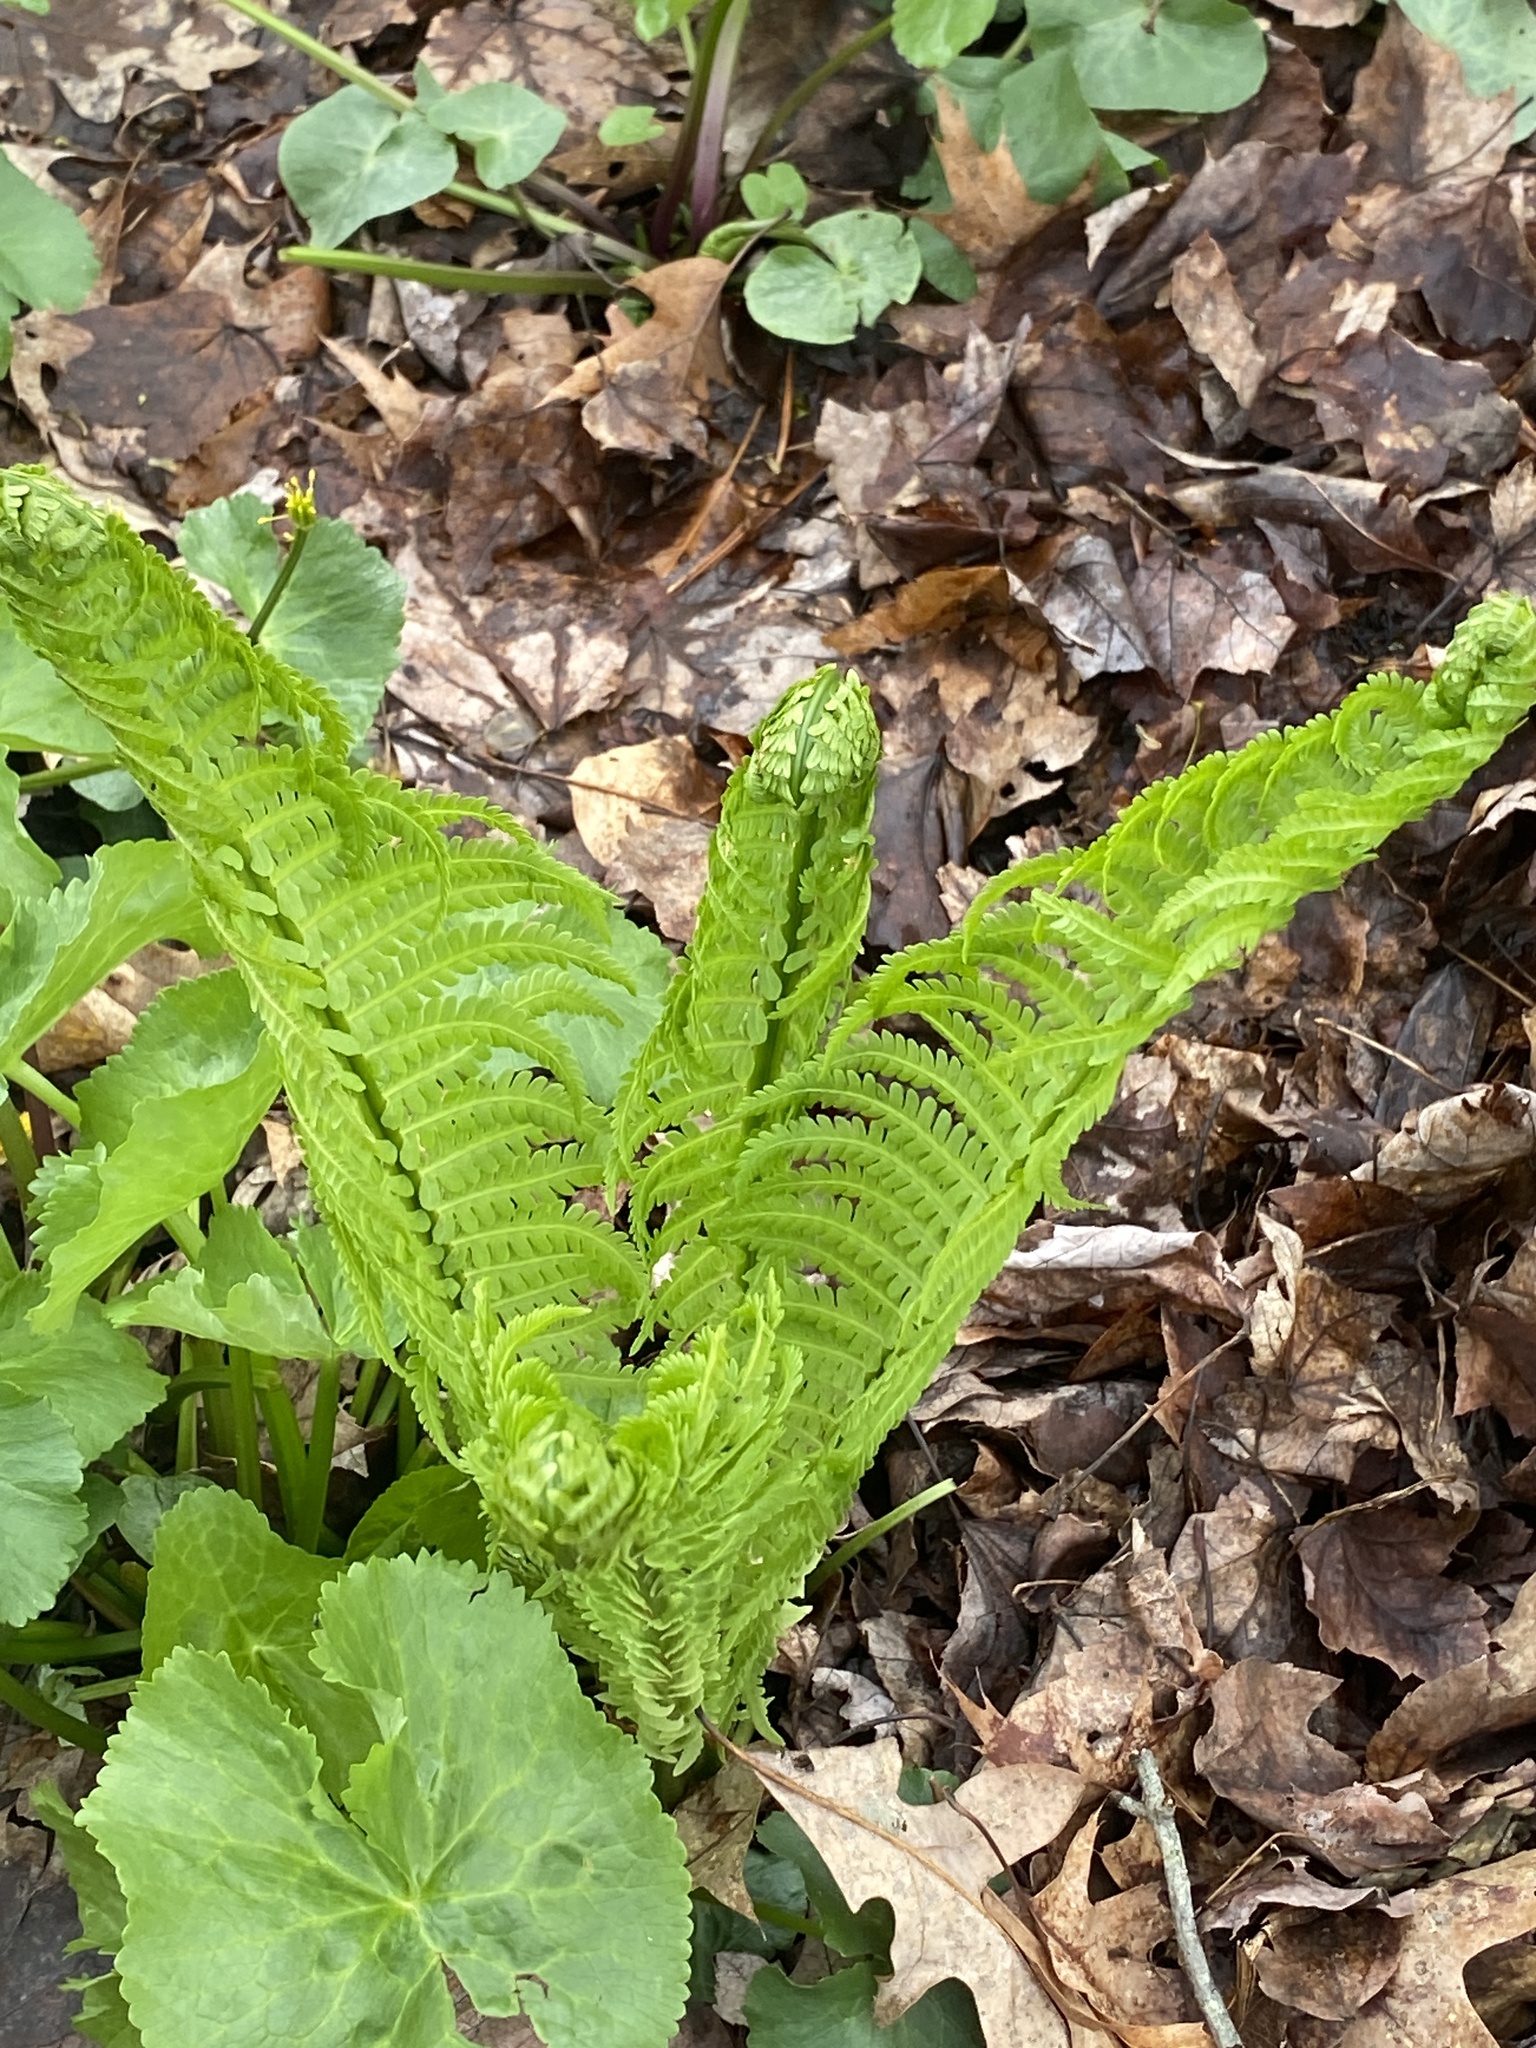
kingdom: Plantae
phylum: Tracheophyta
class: Polypodiopsida
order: Polypodiales
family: Onocleaceae
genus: Matteuccia
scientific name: Matteuccia struthiopteris
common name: Ostrich fern
